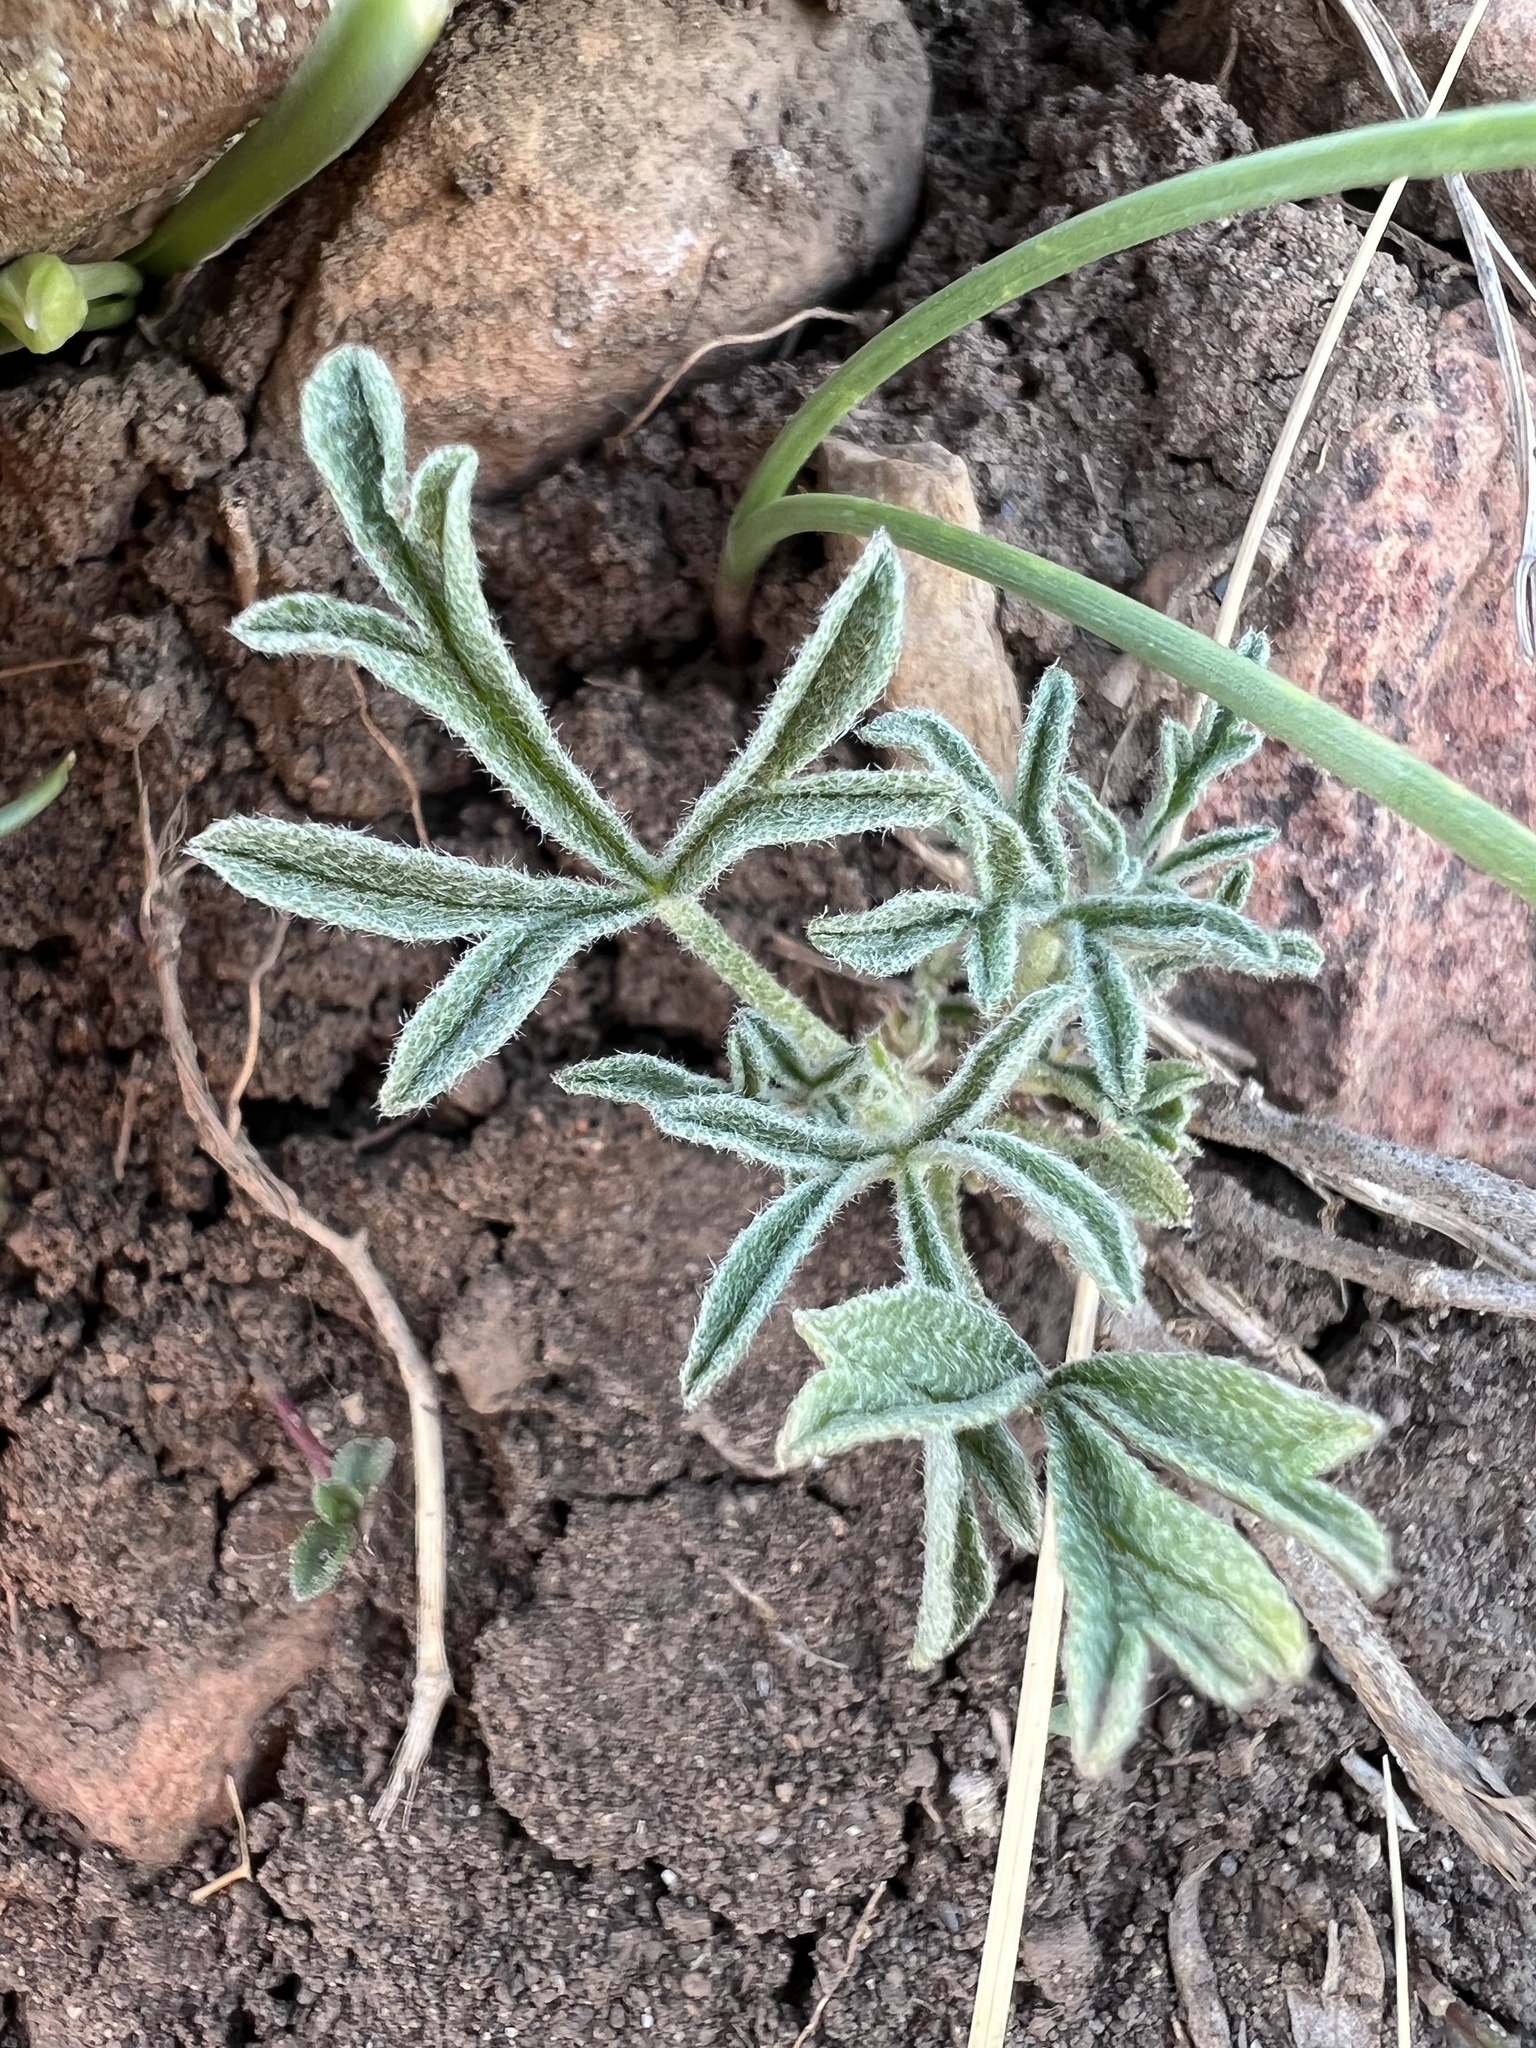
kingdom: Plantae
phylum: Tracheophyta
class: Magnoliopsida
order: Malvales
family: Malvaceae
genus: Sphaeralcea
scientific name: Sphaeralcea coccinea
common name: Moss-rose
